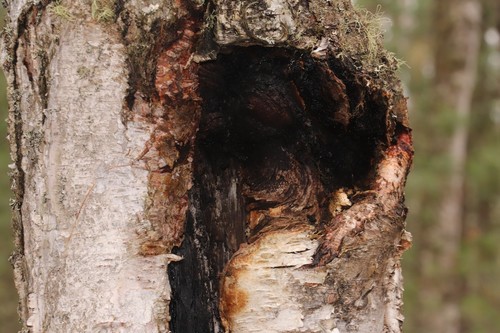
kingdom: Fungi
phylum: Basidiomycota
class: Agaricomycetes
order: Hymenochaetales
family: Hymenochaetaceae
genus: Inonotus
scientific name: Inonotus obliquus
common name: Chaga
